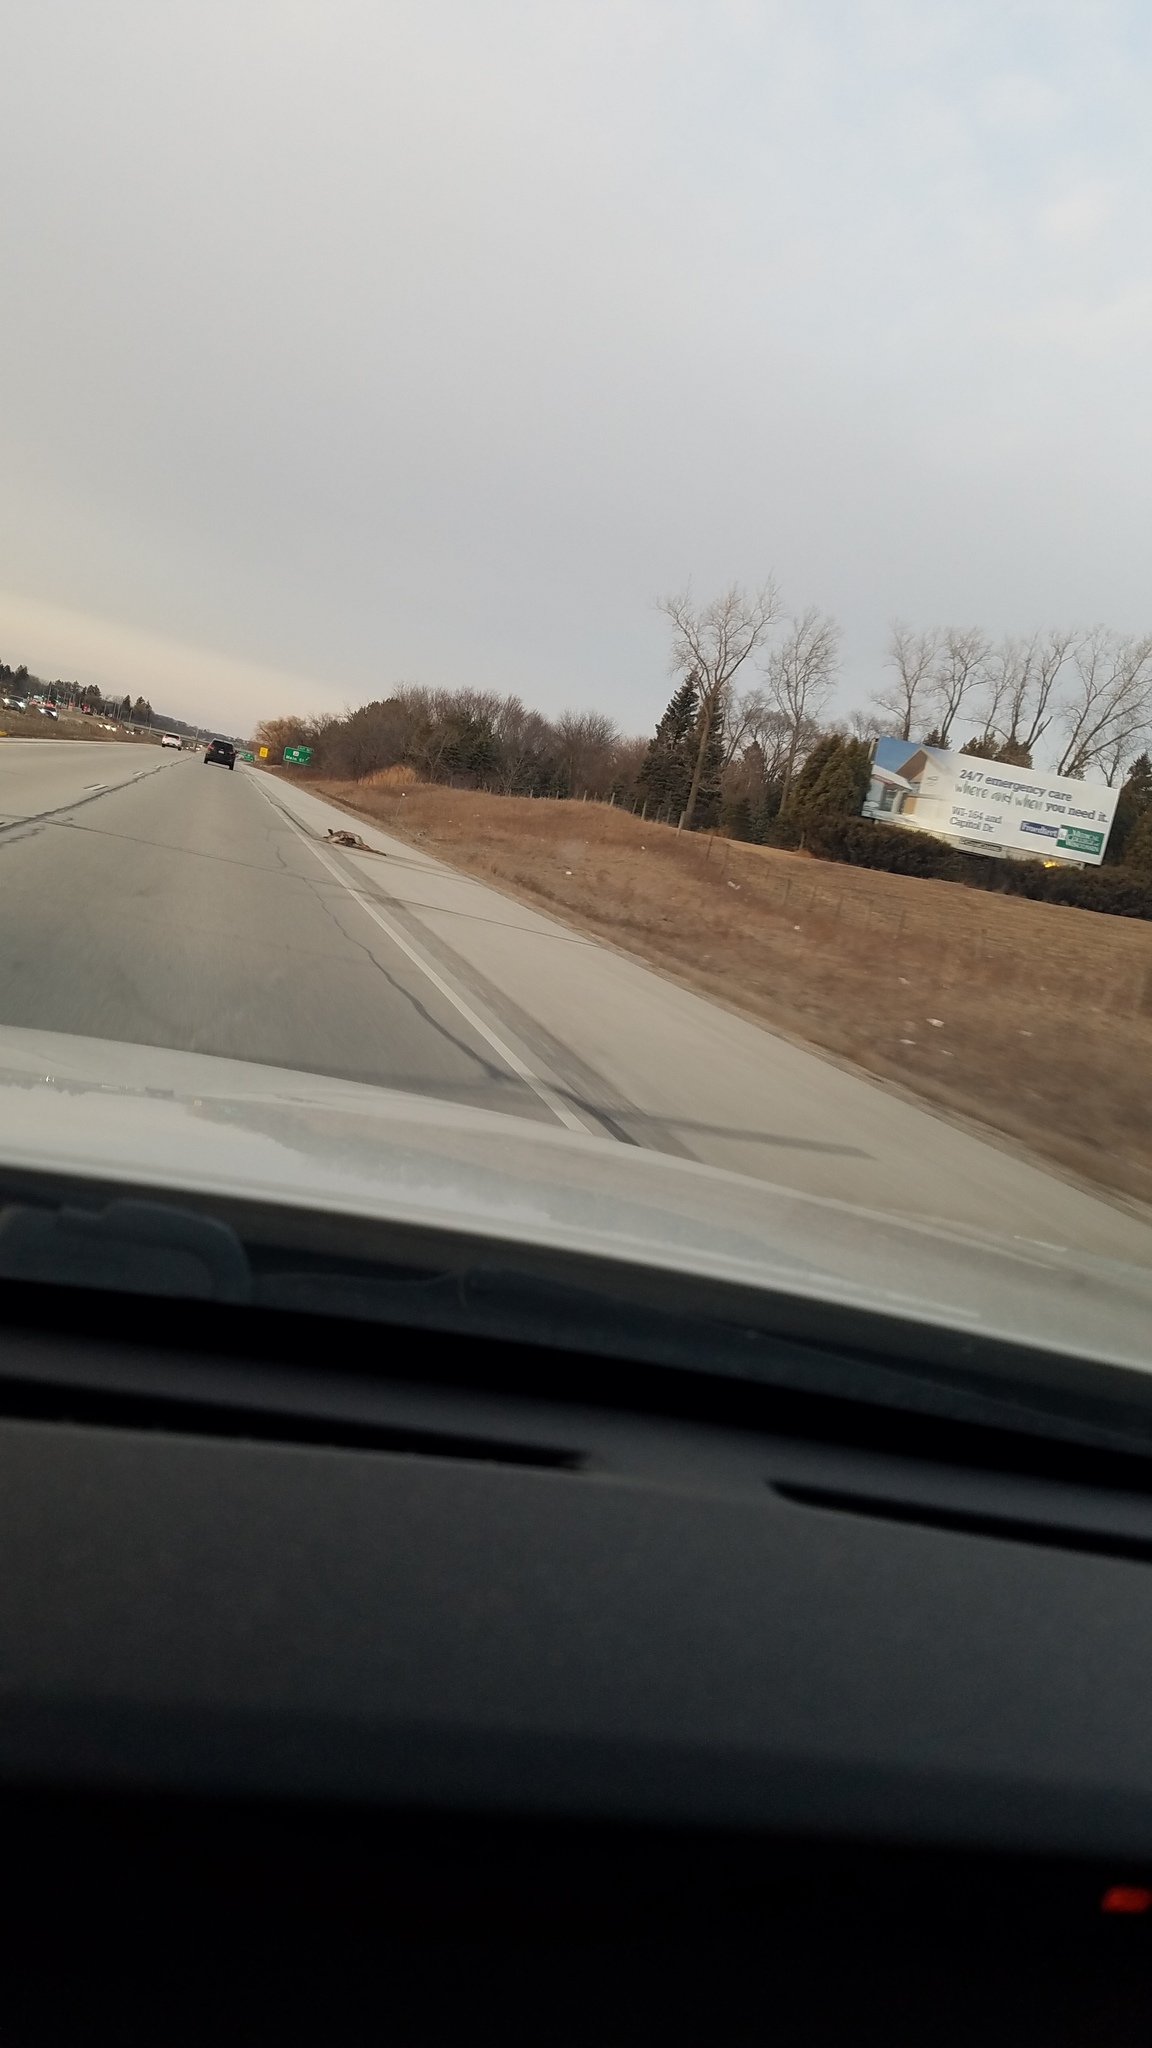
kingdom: Animalia
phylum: Chordata
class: Mammalia
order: Artiodactyla
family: Cervidae
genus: Odocoileus
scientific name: Odocoileus virginianus
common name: White-tailed deer
